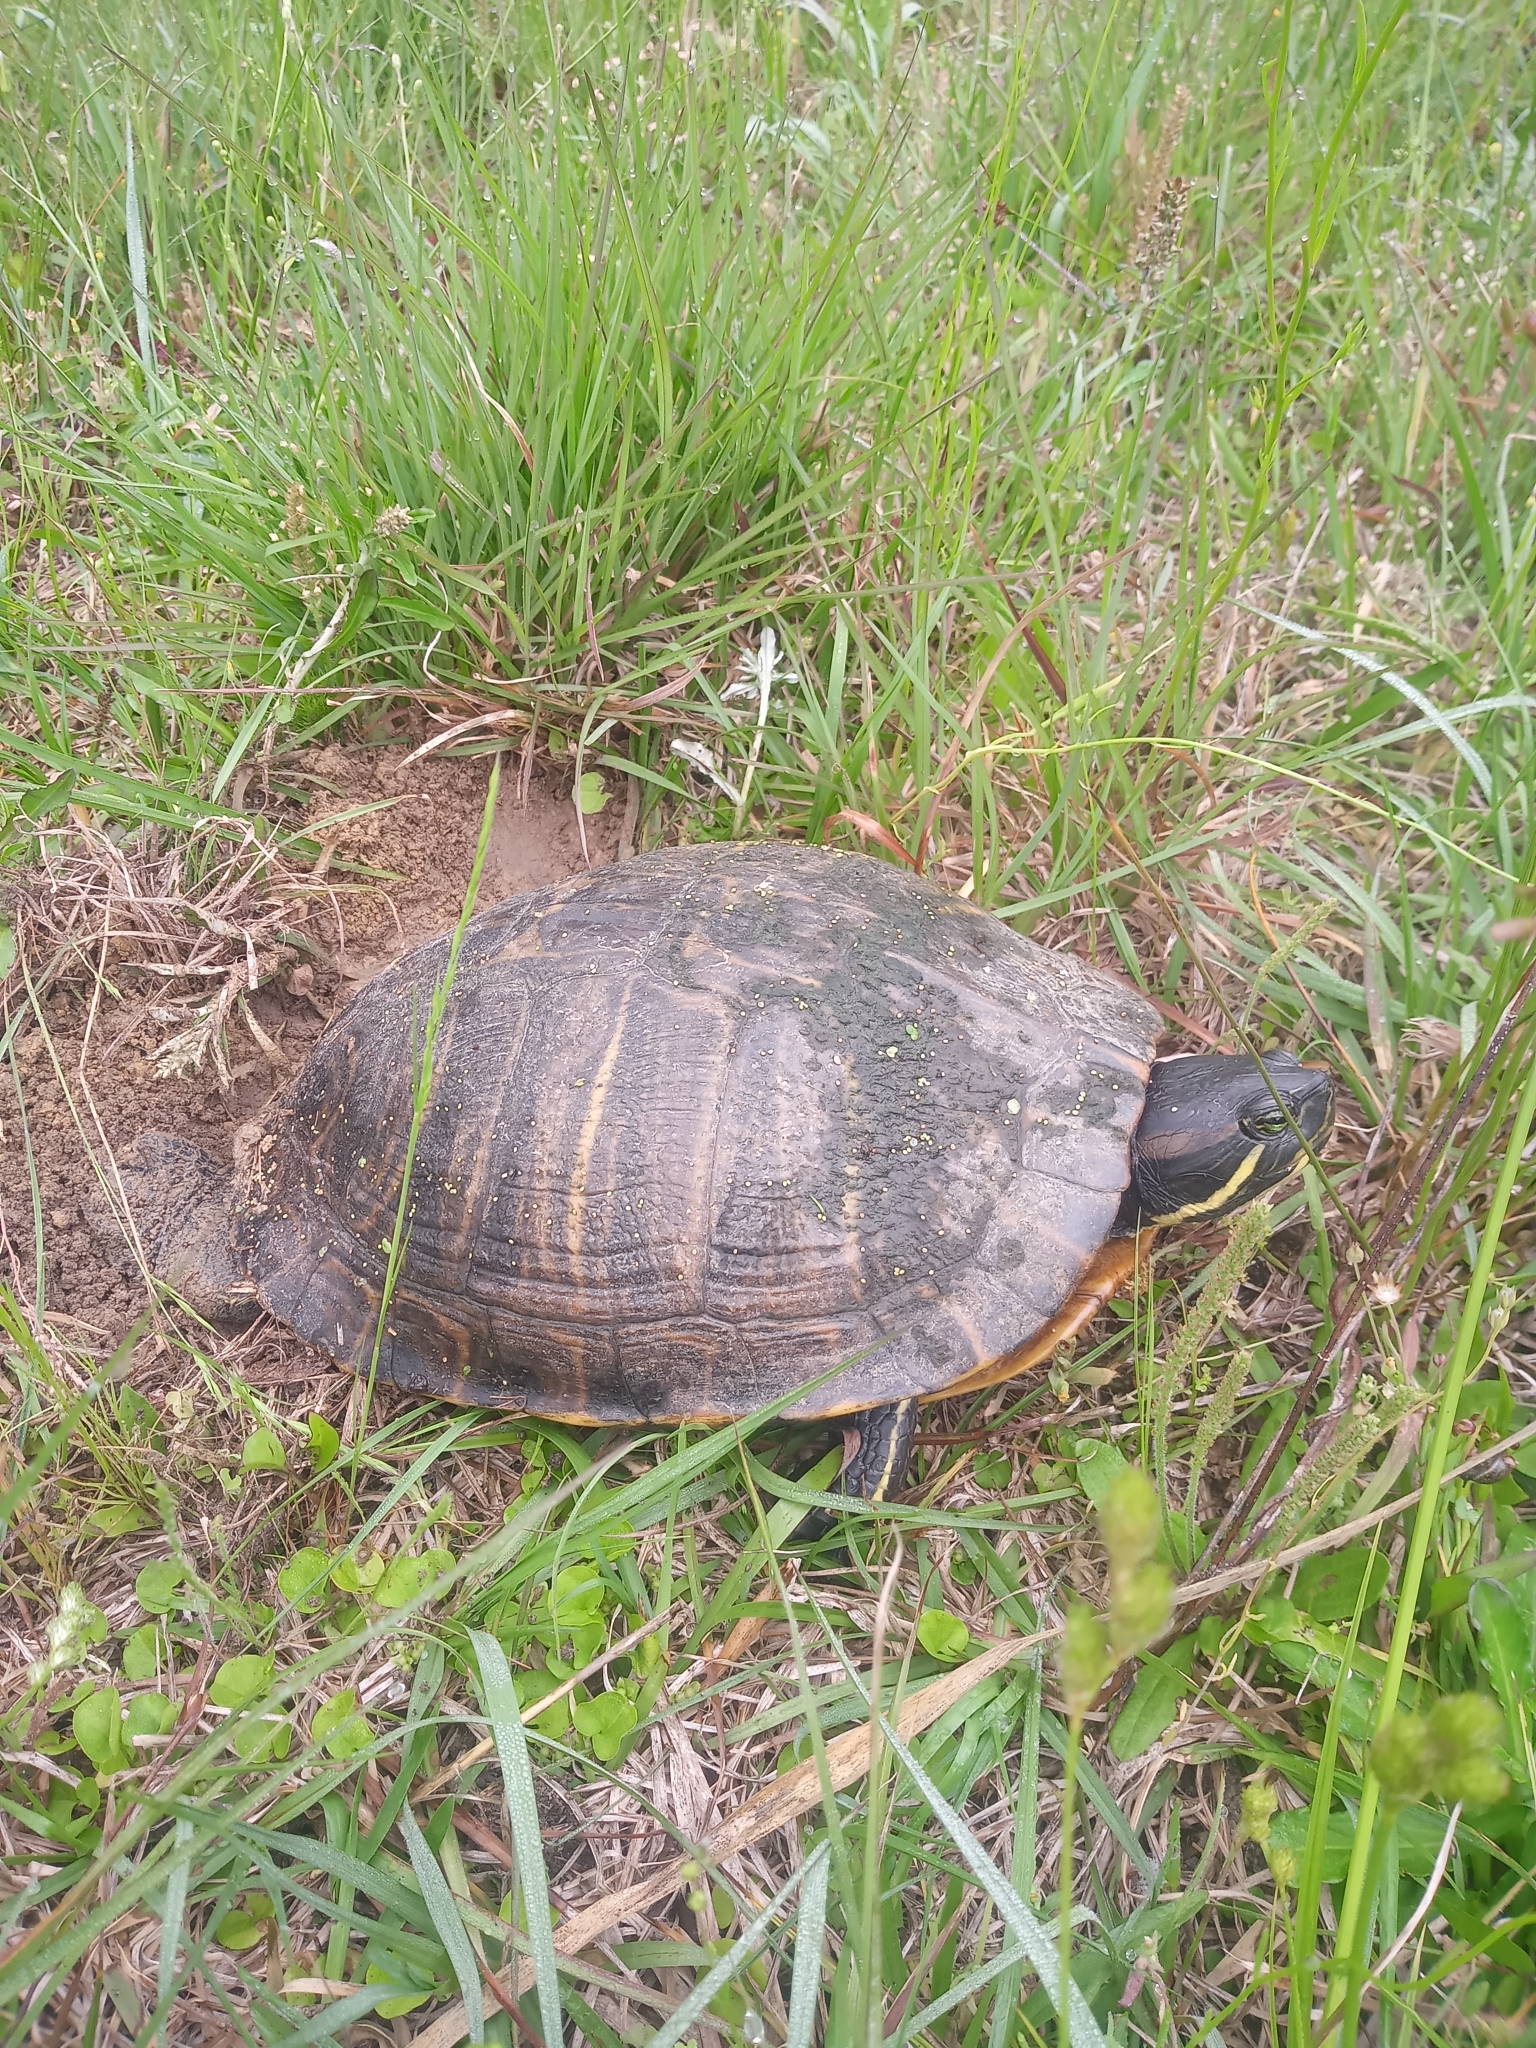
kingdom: Animalia
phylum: Chordata
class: Testudines
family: Emydidae
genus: Trachemys
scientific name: Trachemys scripta
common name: Slider
